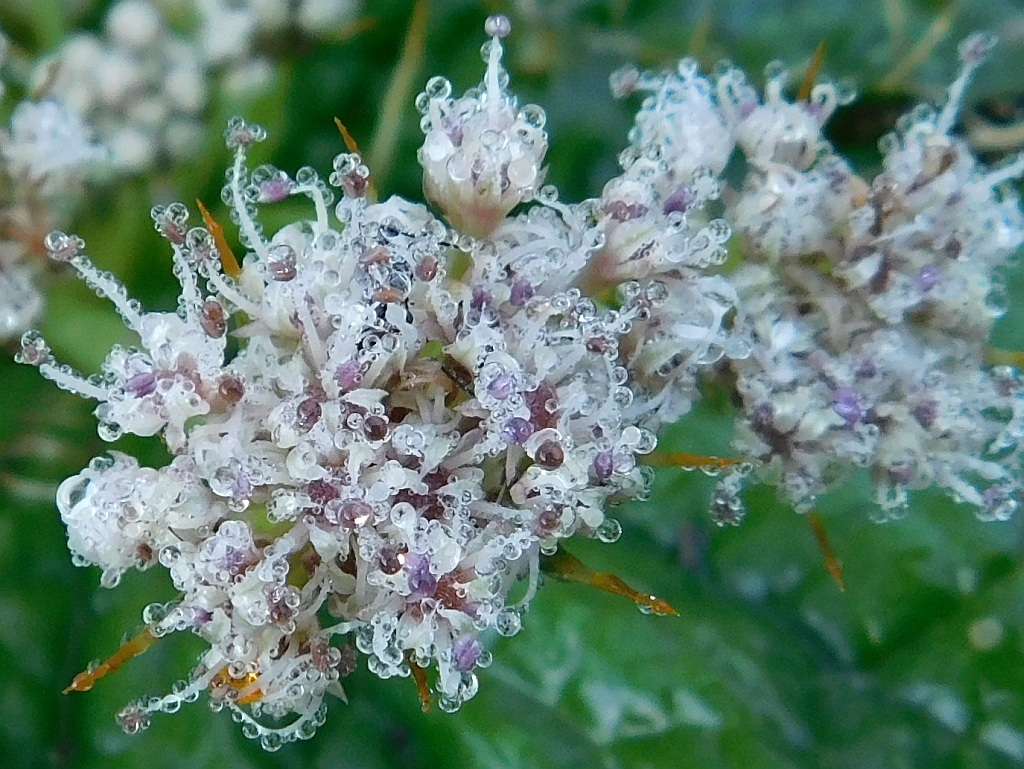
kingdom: Plantae
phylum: Tracheophyta
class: Magnoliopsida
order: Apiales
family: Apiaceae
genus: Arctopus
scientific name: Arctopus echinatus
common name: Platdoring
